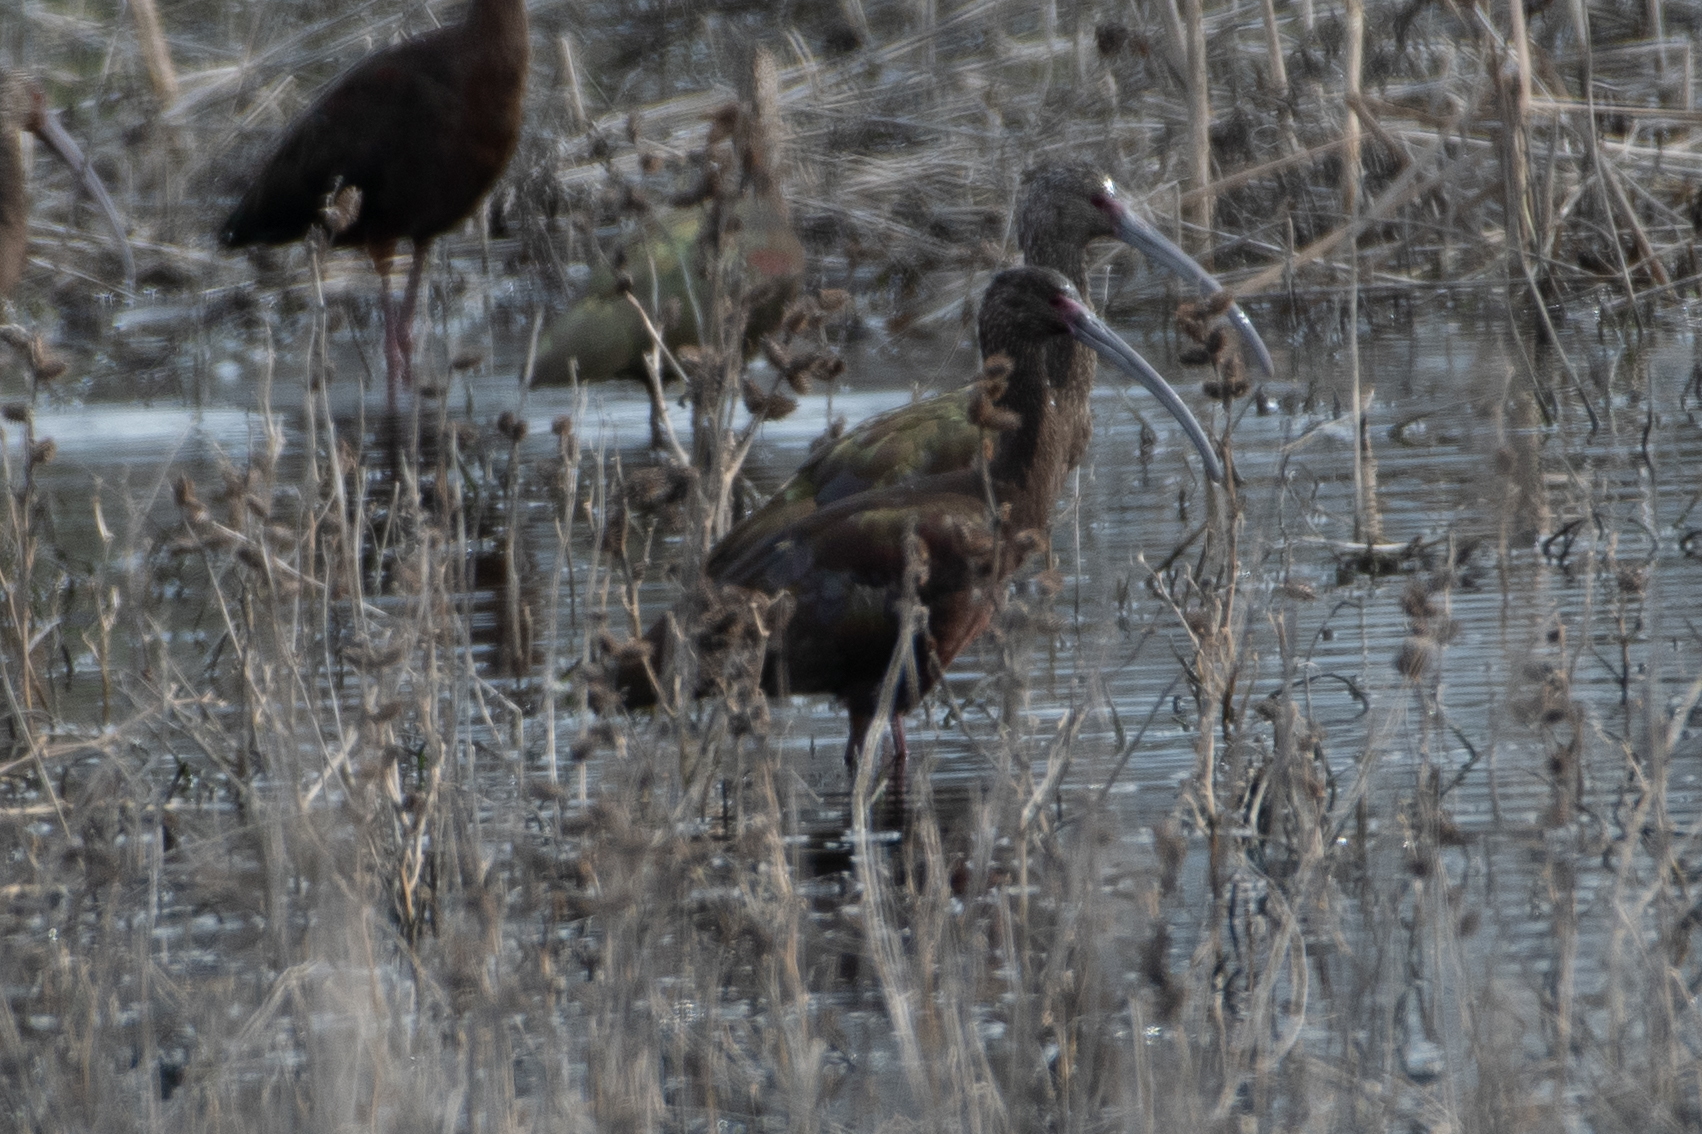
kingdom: Animalia
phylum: Chordata
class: Aves
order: Pelecaniformes
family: Threskiornithidae
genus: Plegadis
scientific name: Plegadis chihi
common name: White-faced ibis
